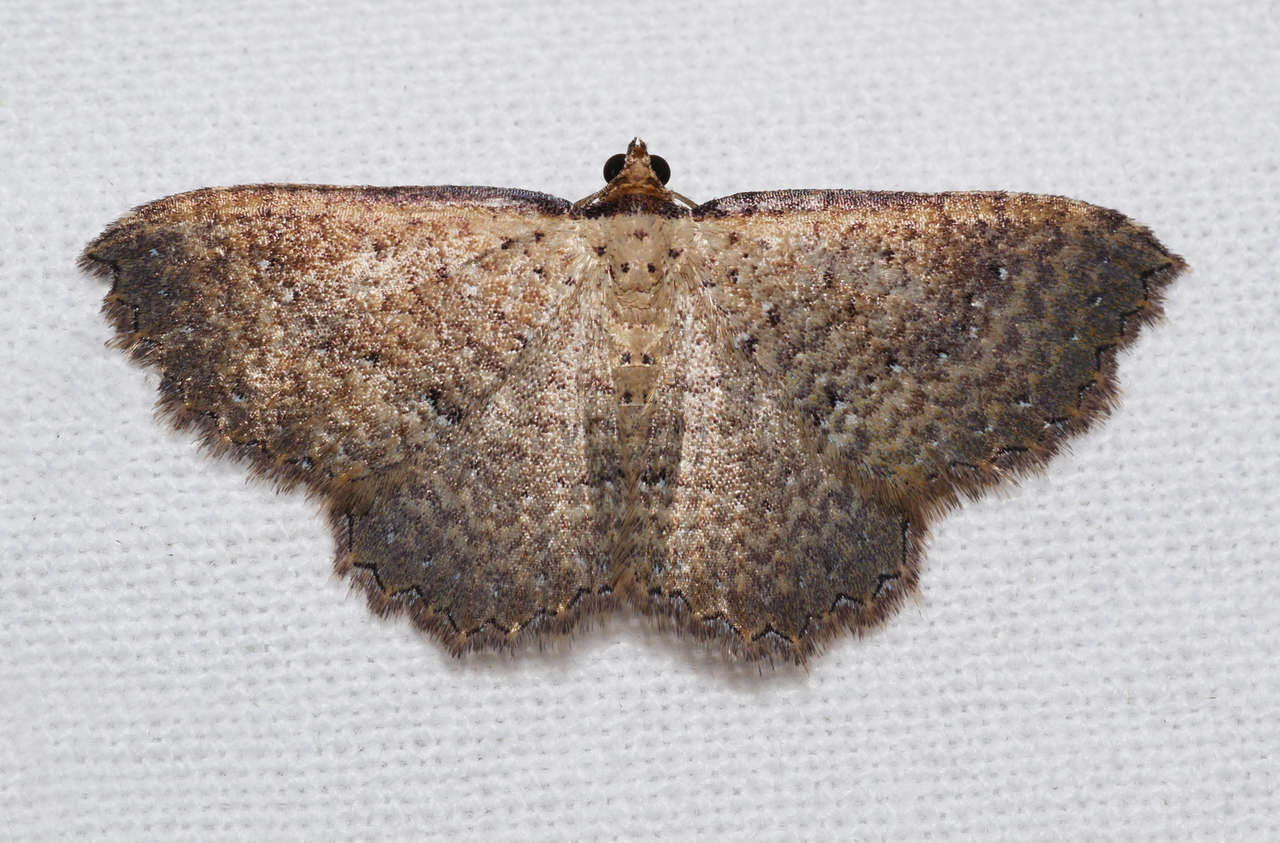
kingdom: Animalia
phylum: Arthropoda
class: Insecta
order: Lepidoptera
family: Geometridae
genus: Chrysolarentia
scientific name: Chrysolarentia microcyma
